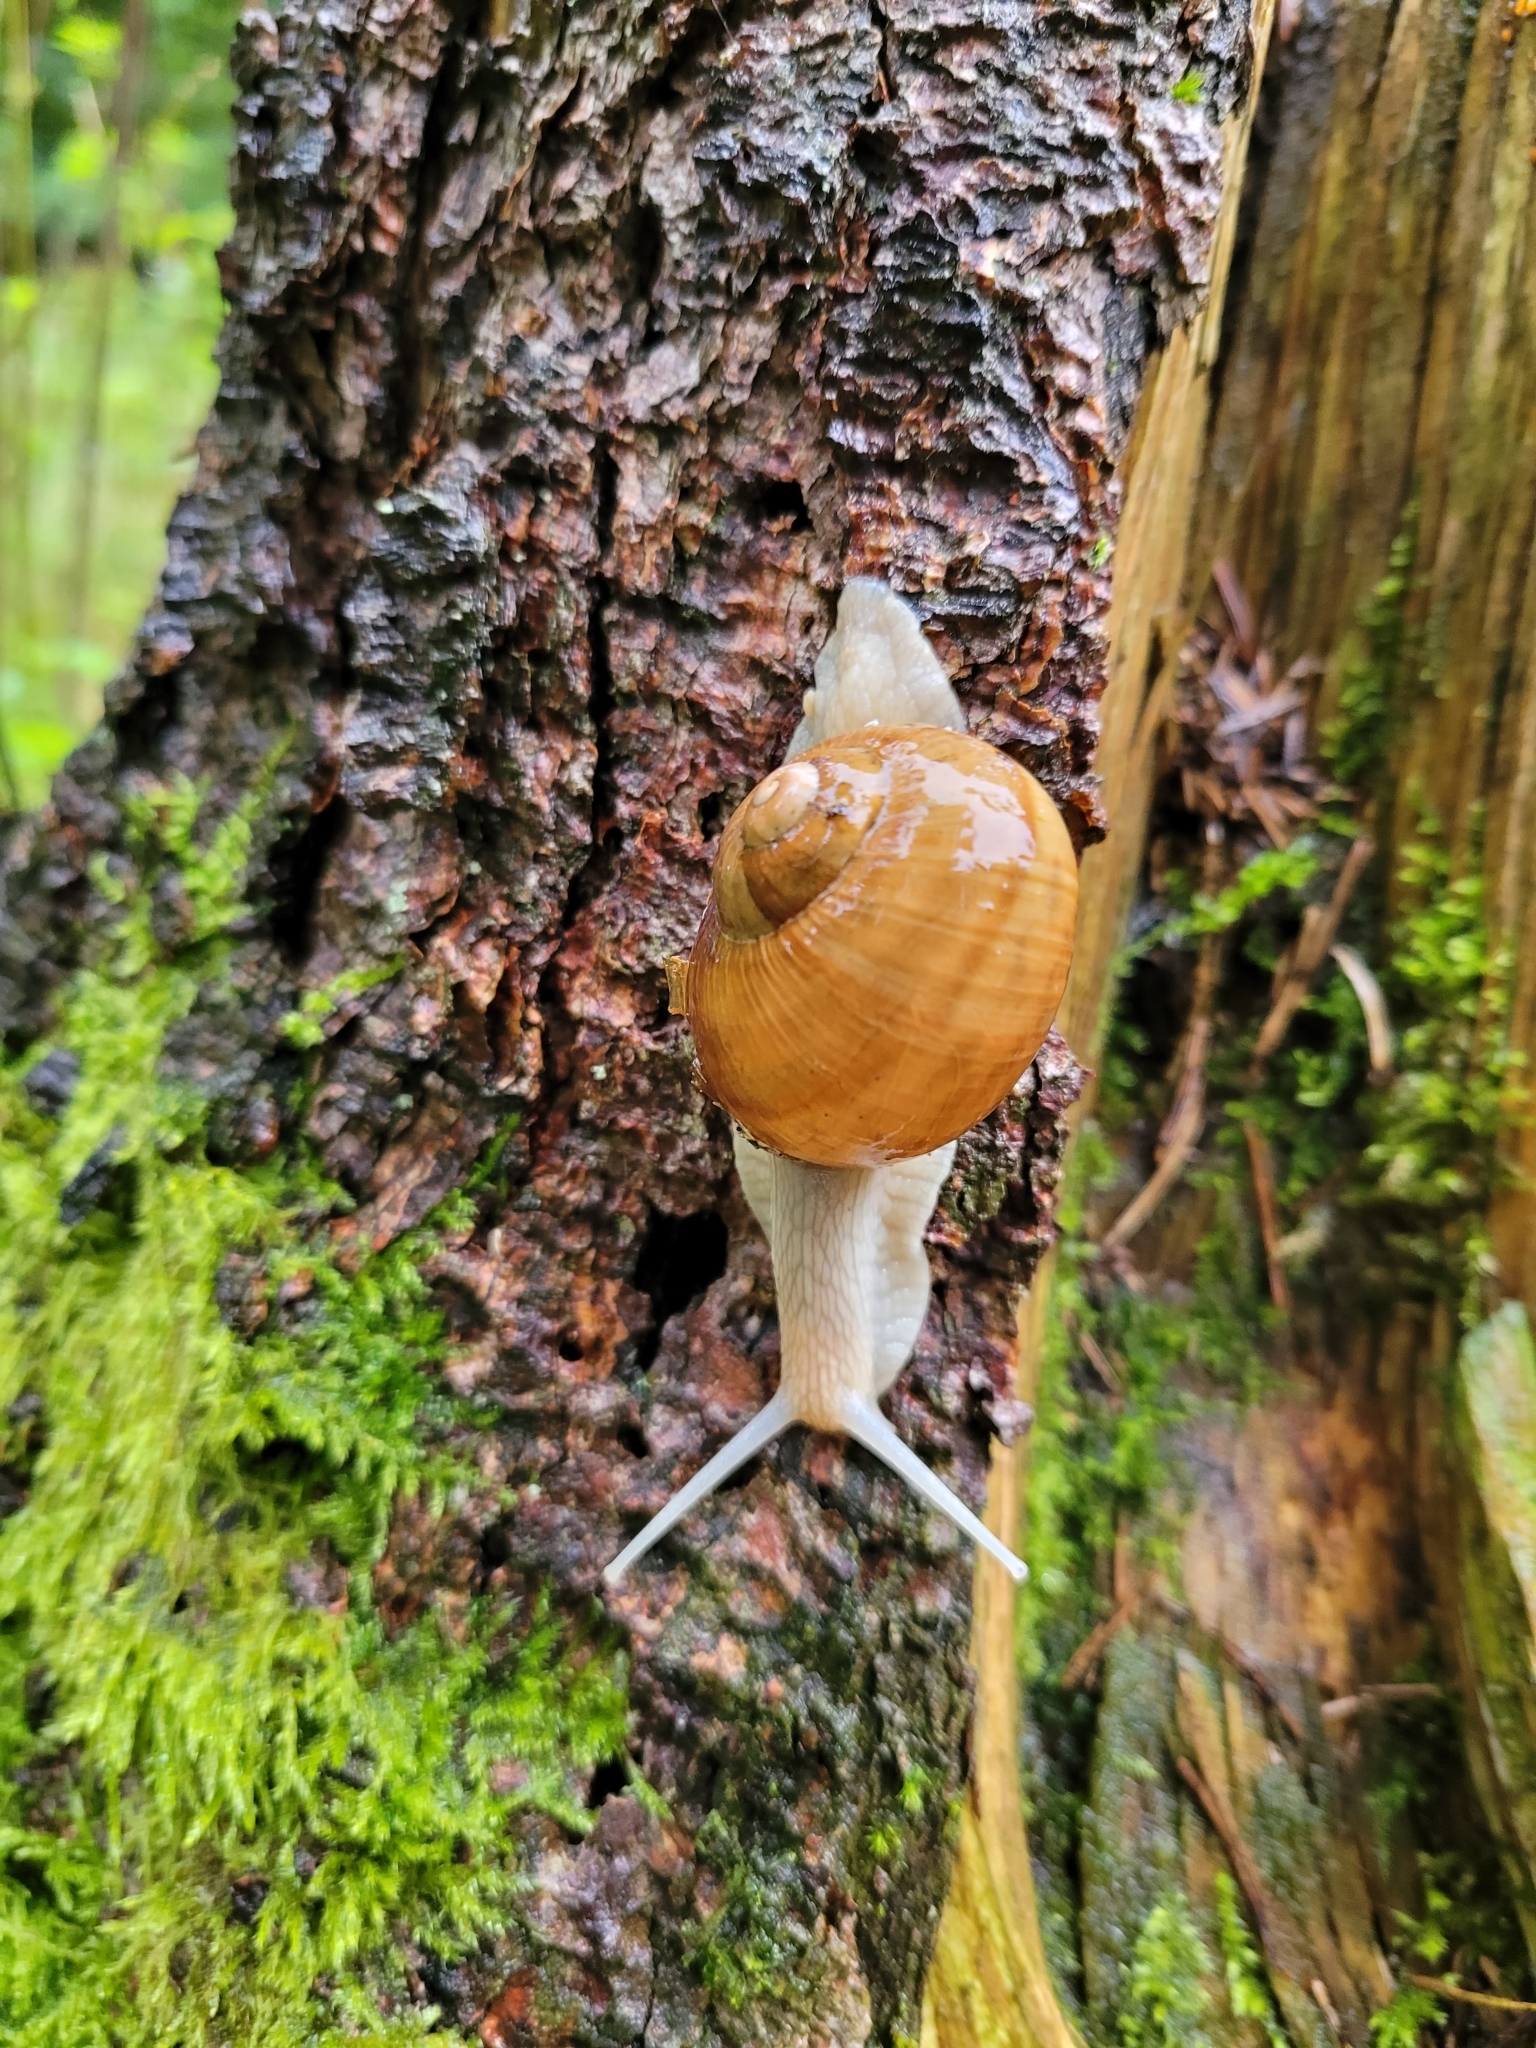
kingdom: Animalia
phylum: Mollusca
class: Gastropoda
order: Stylommatophora
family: Helicidae
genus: Helix
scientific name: Helix pomatia
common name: Roman snail
